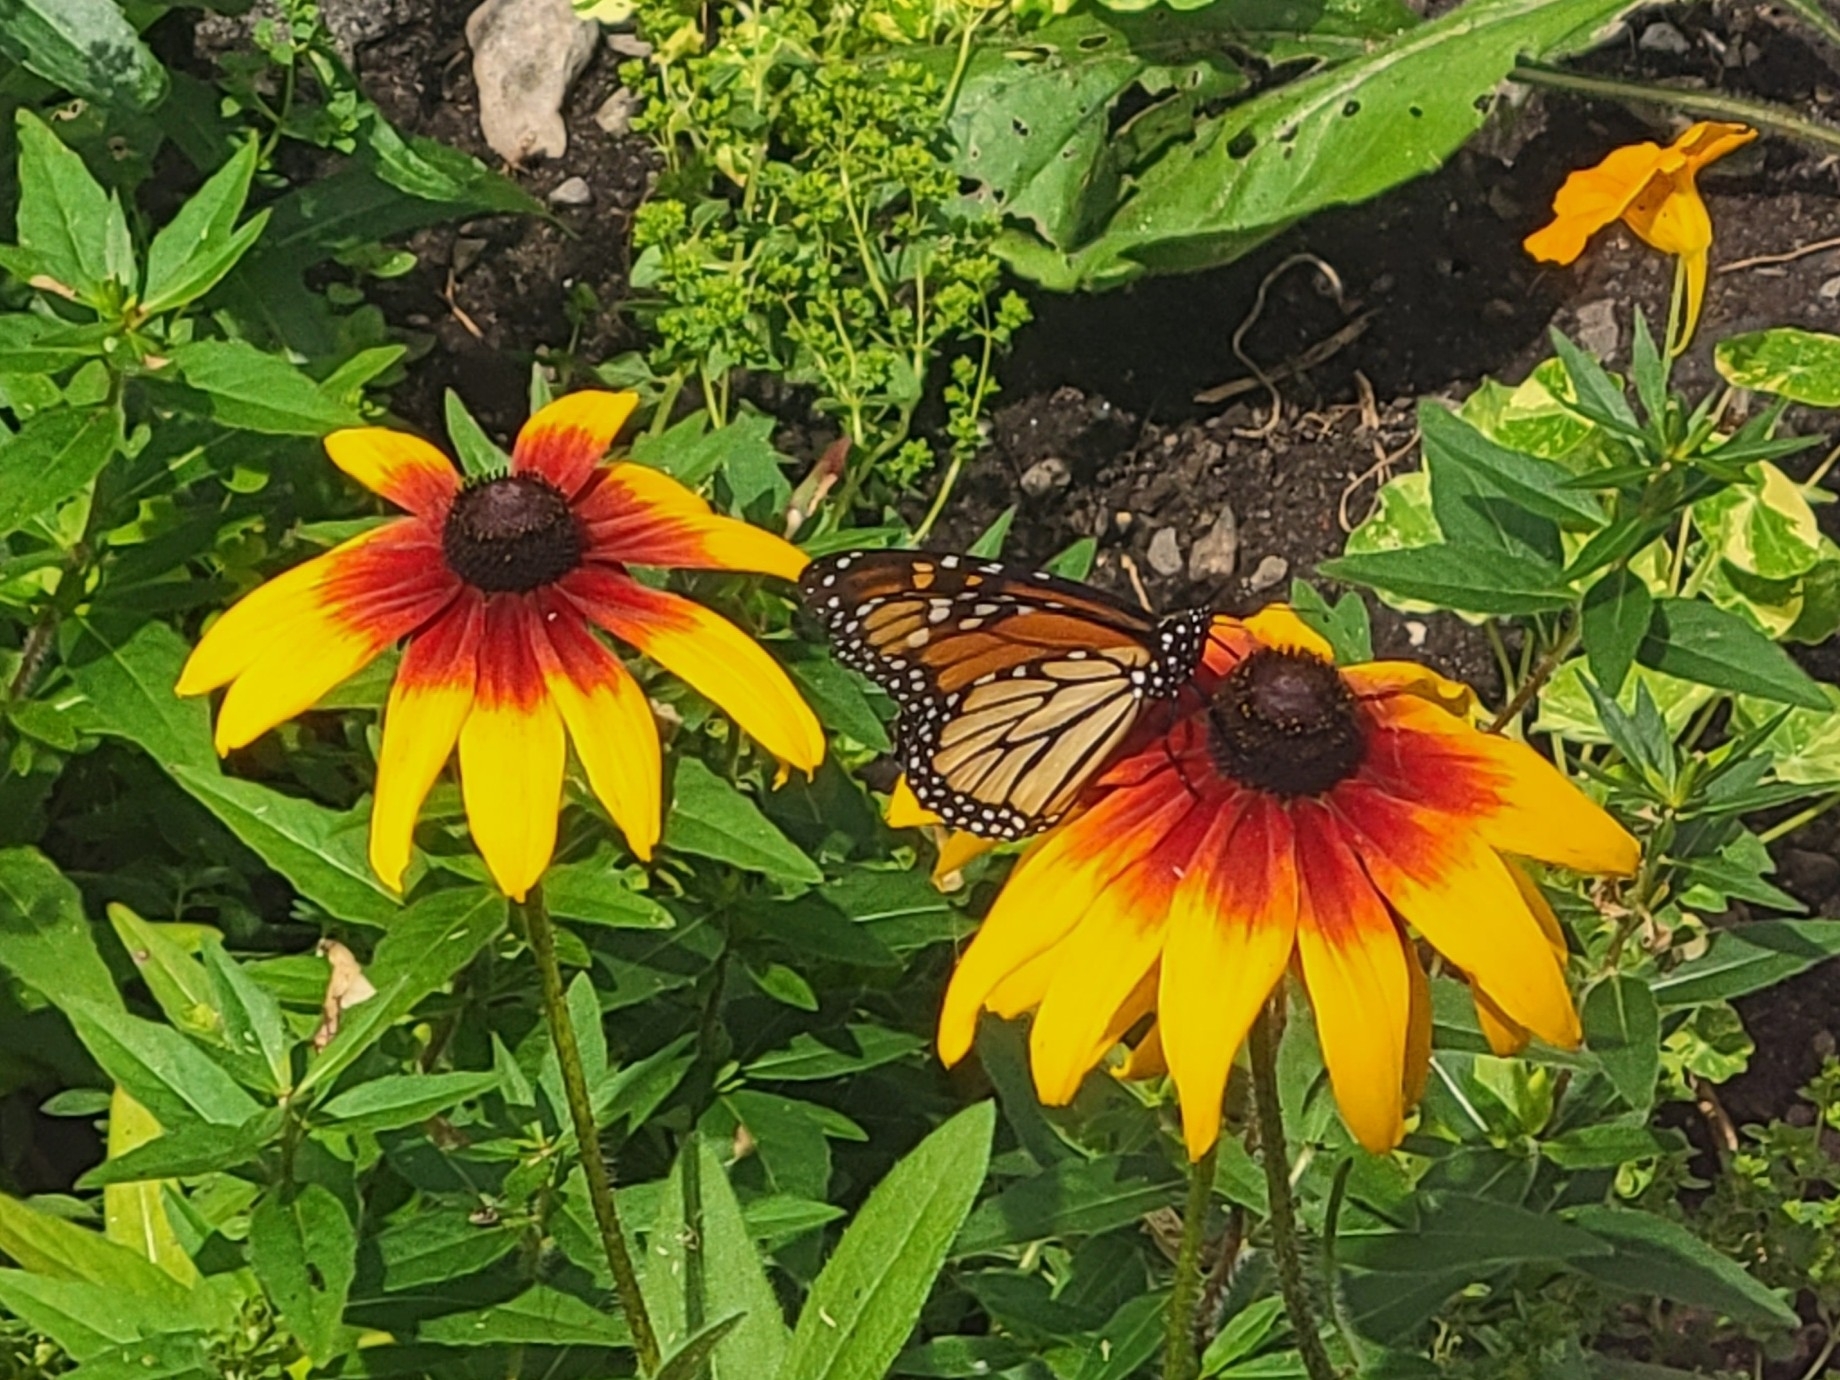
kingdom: Animalia
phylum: Arthropoda
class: Insecta
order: Lepidoptera
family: Nymphalidae
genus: Danaus
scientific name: Danaus plexippus
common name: Monarch
